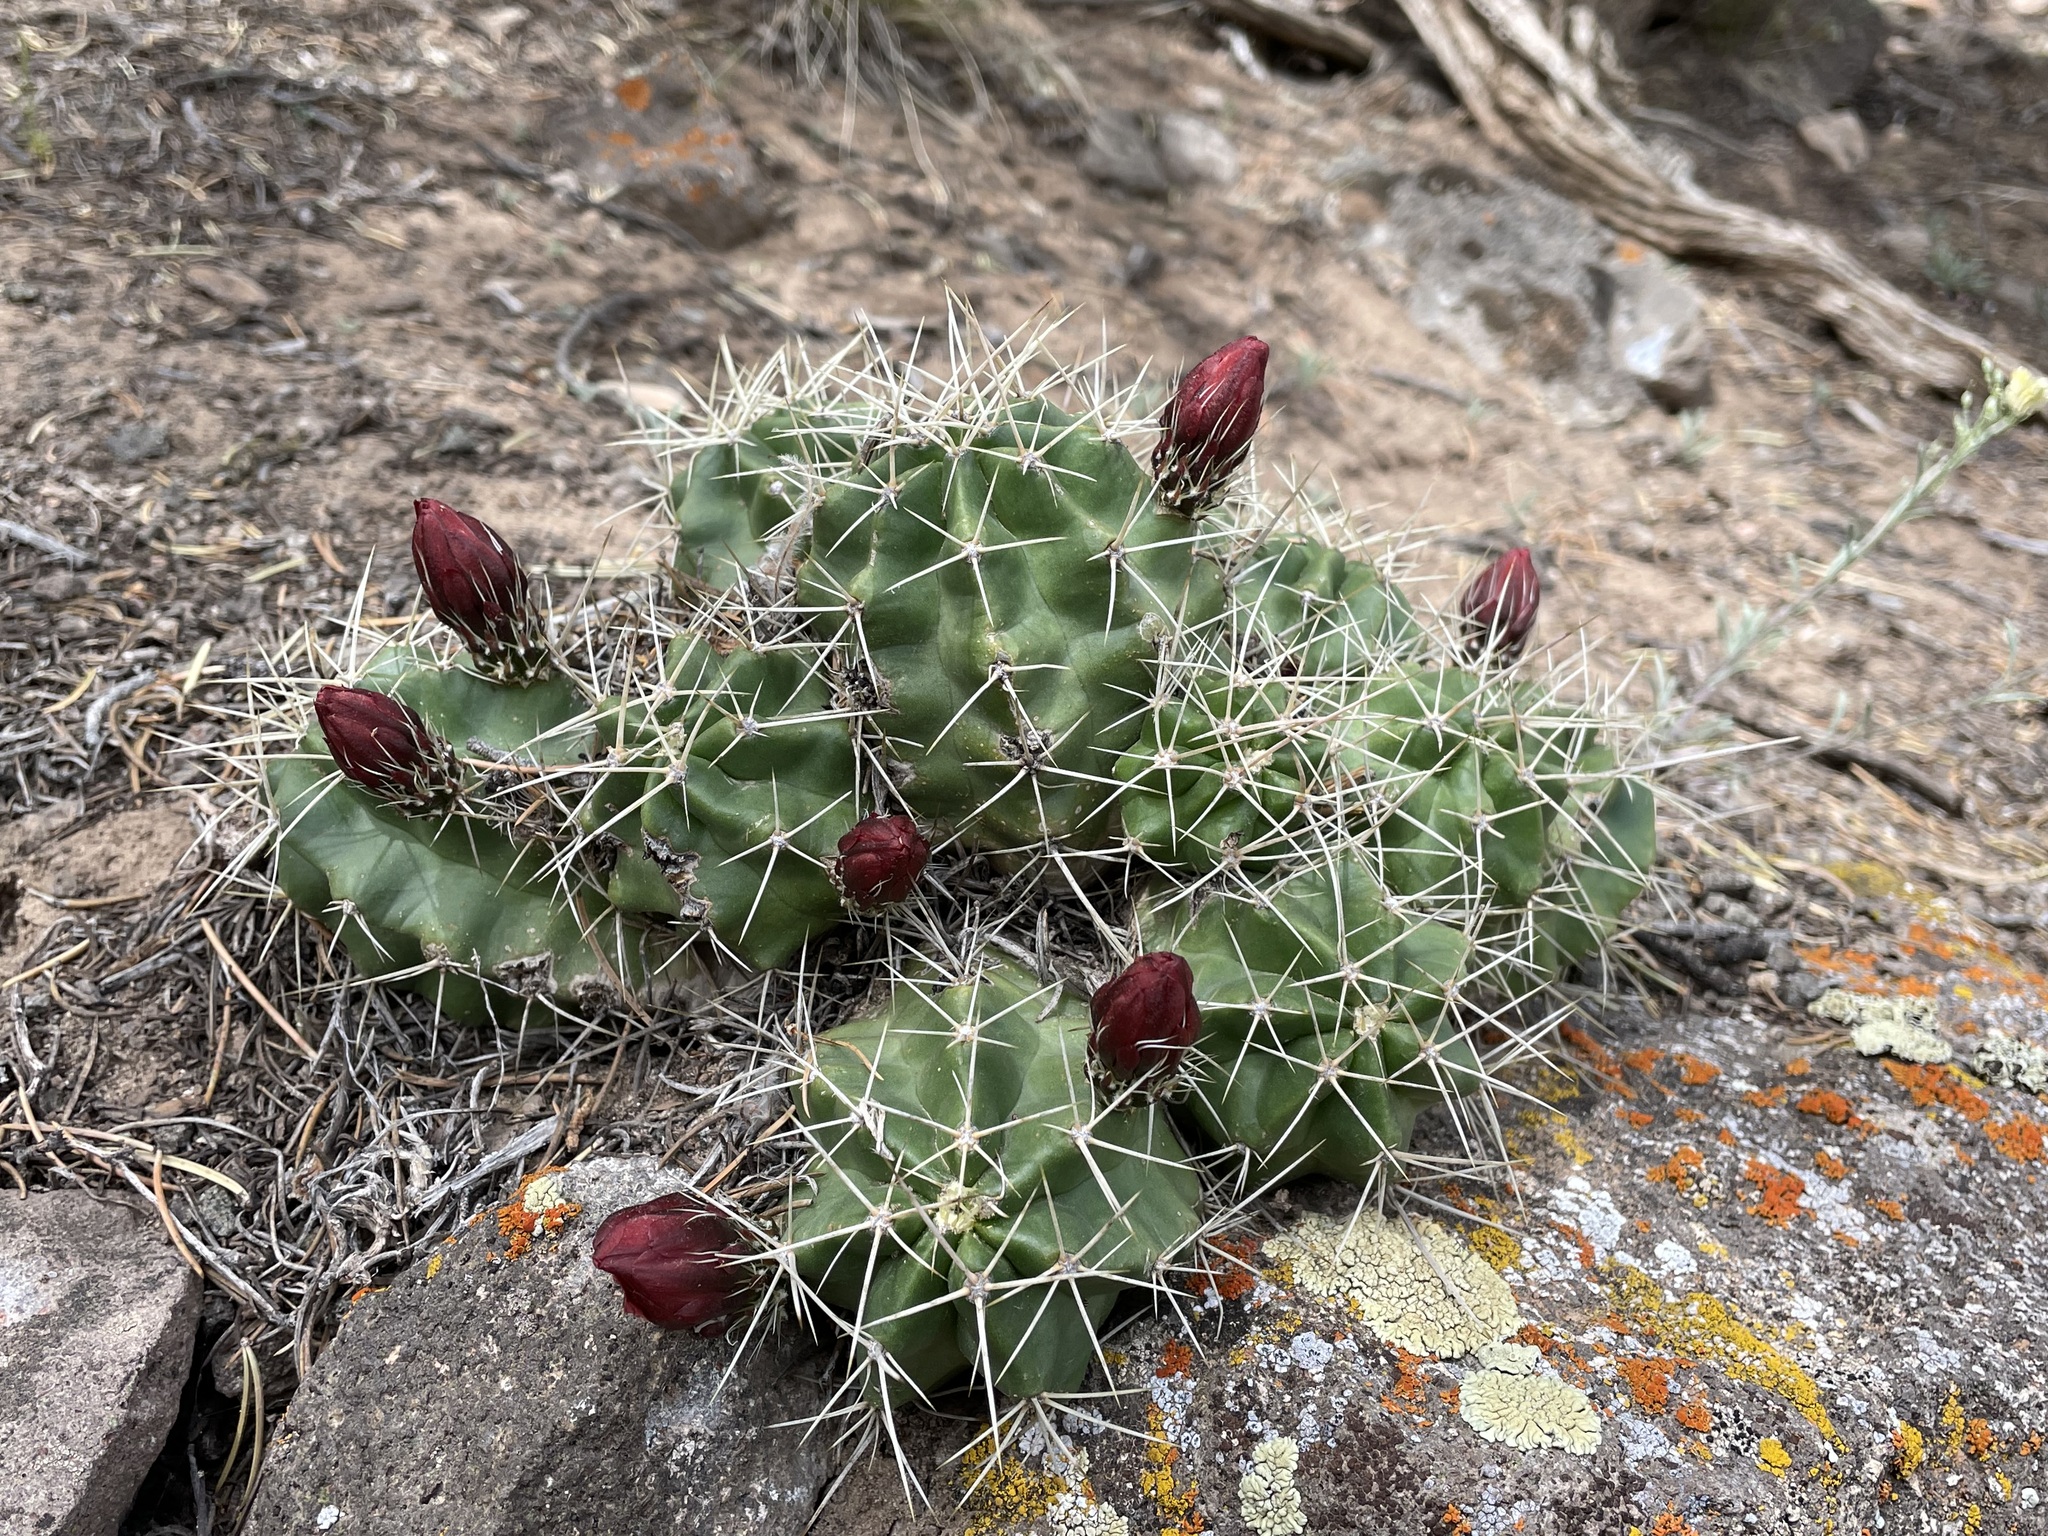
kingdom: Plantae
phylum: Tracheophyta
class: Magnoliopsida
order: Caryophyllales
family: Cactaceae
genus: Echinocereus
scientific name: Echinocereus triglochidiatus
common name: Claretcup hedgehog
